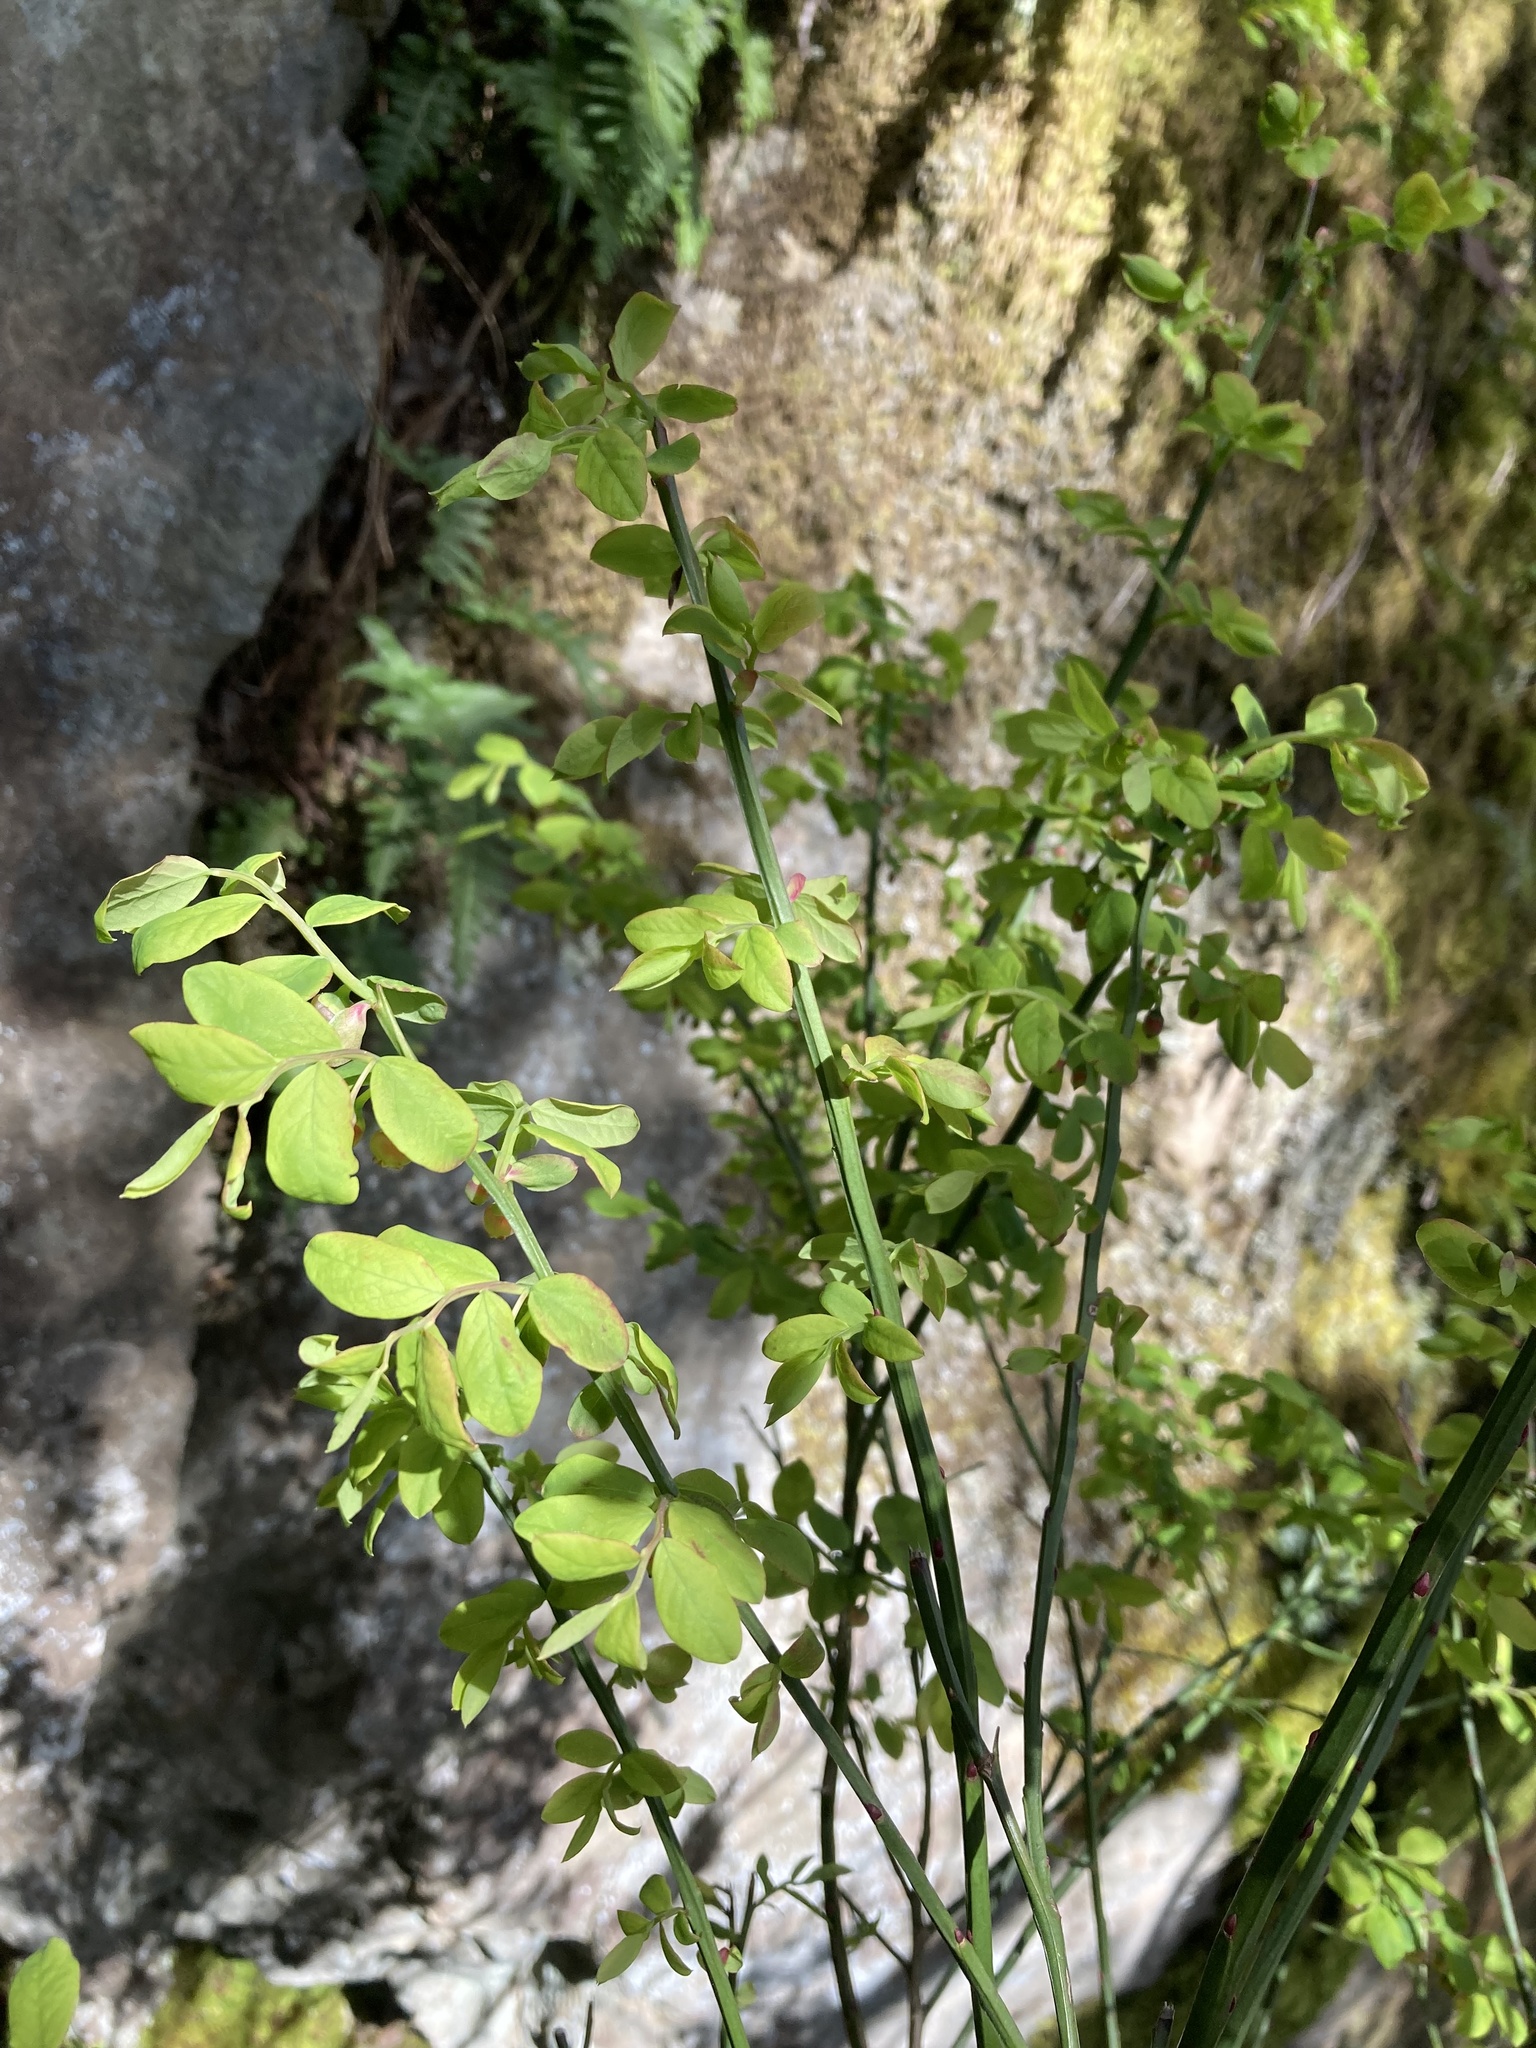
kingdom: Plantae
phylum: Tracheophyta
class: Magnoliopsida
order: Ericales
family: Ericaceae
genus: Vaccinium
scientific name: Vaccinium parvifolium
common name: Red-huckleberry
